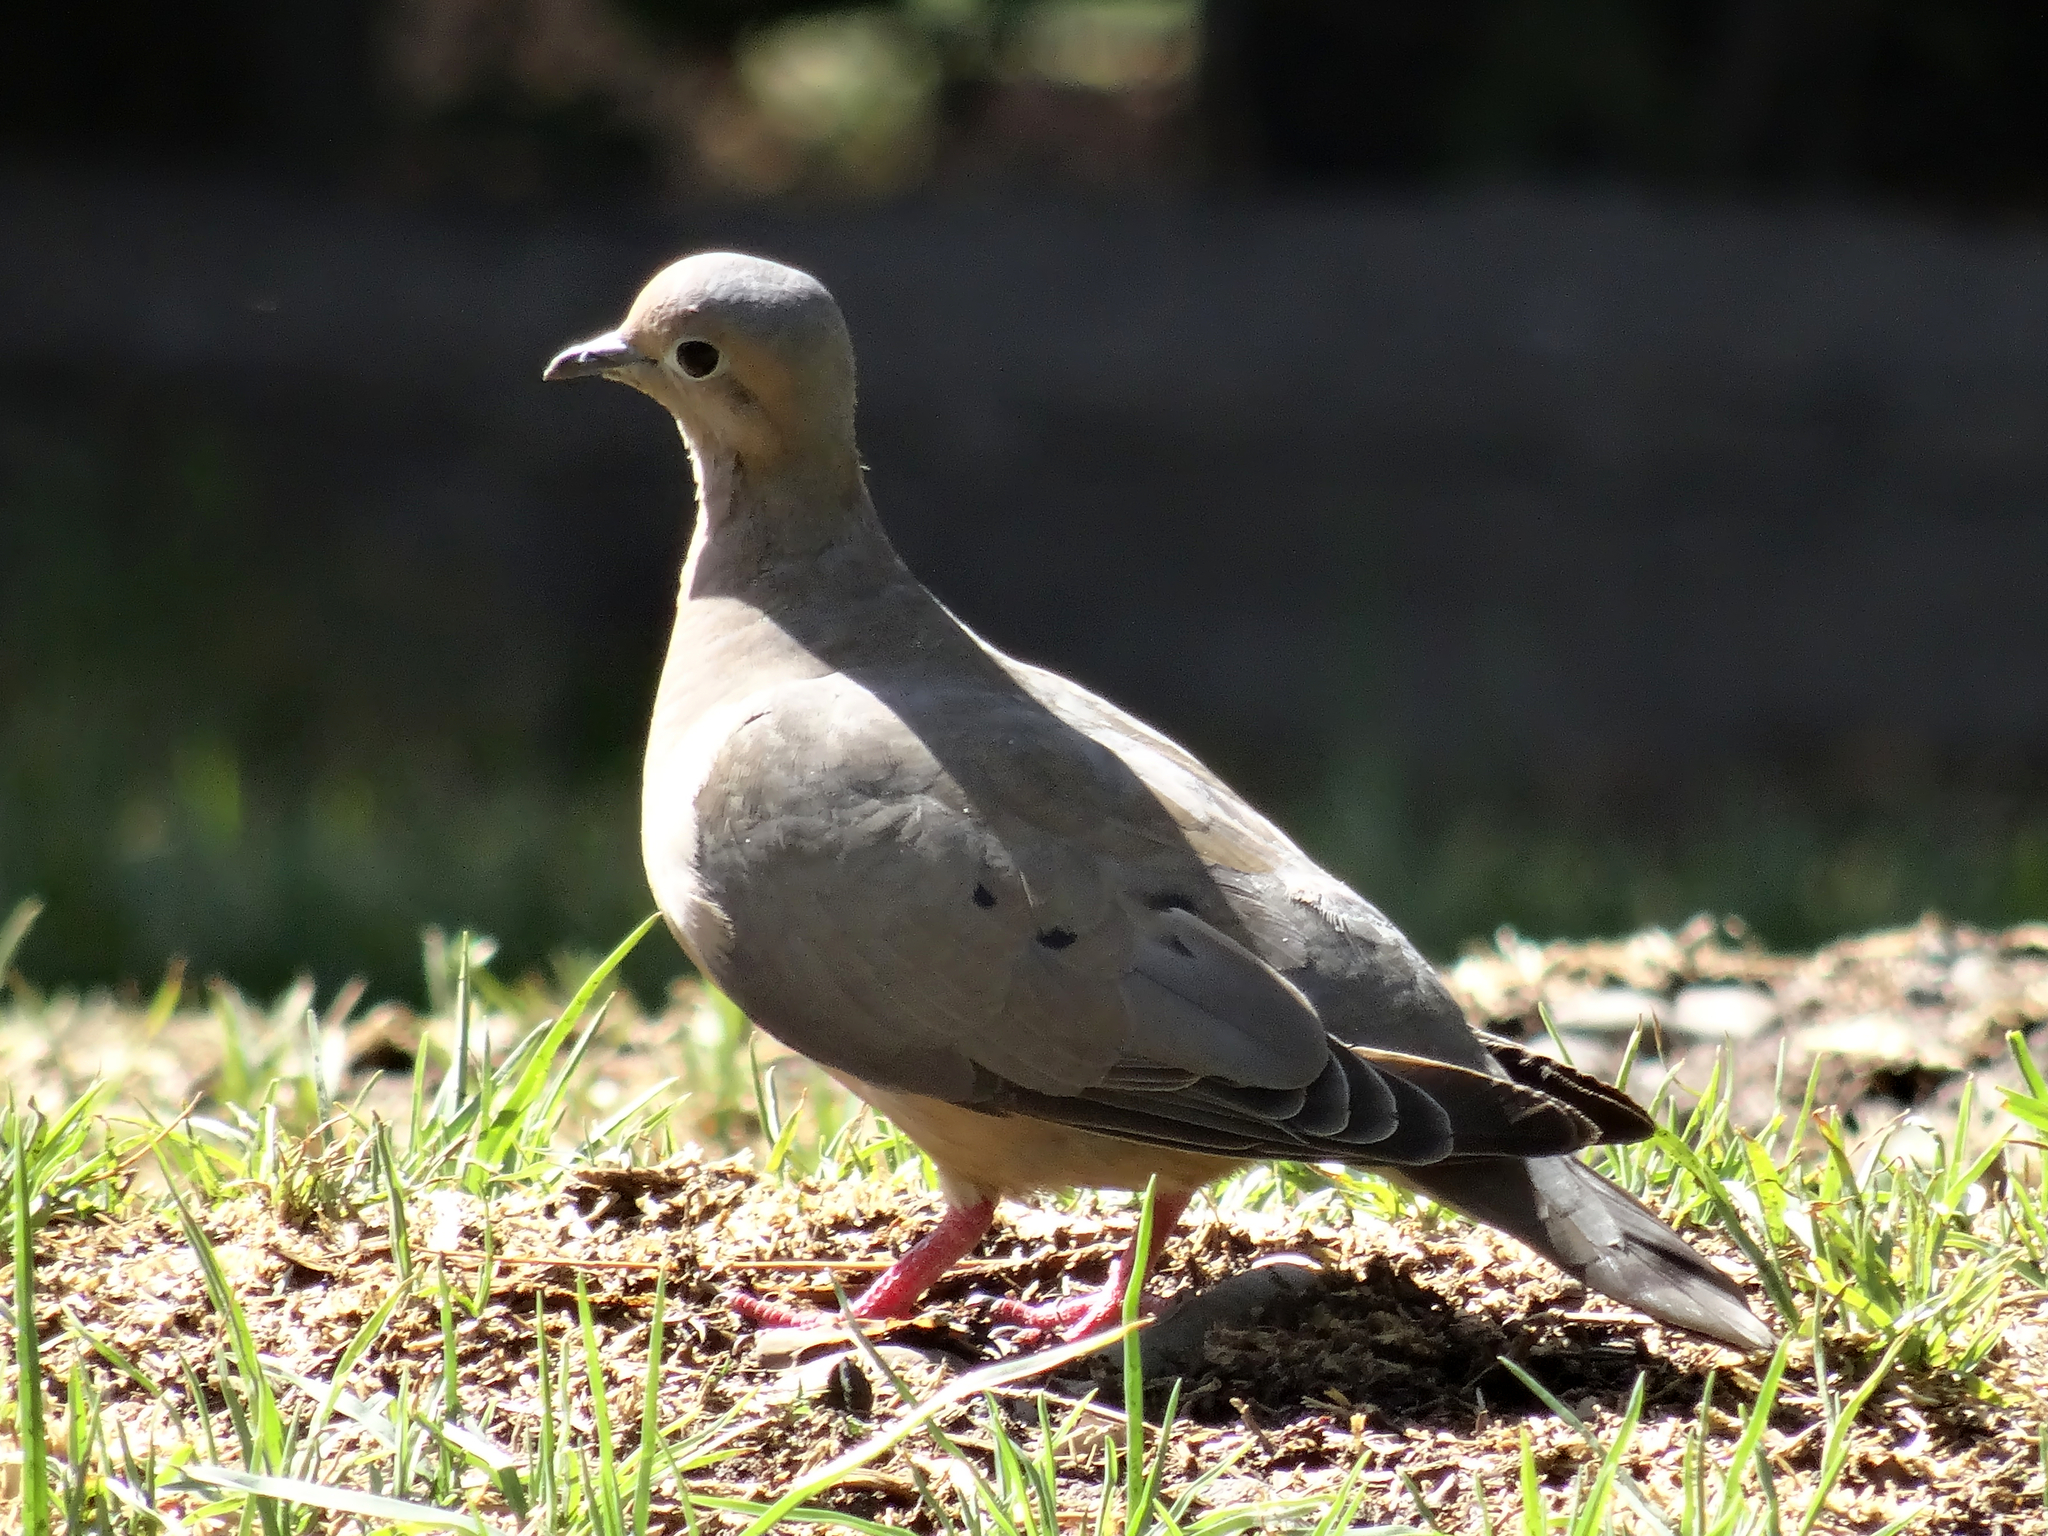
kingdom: Animalia
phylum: Chordata
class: Aves
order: Columbiformes
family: Columbidae
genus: Zenaida
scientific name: Zenaida auriculata
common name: Eared dove
